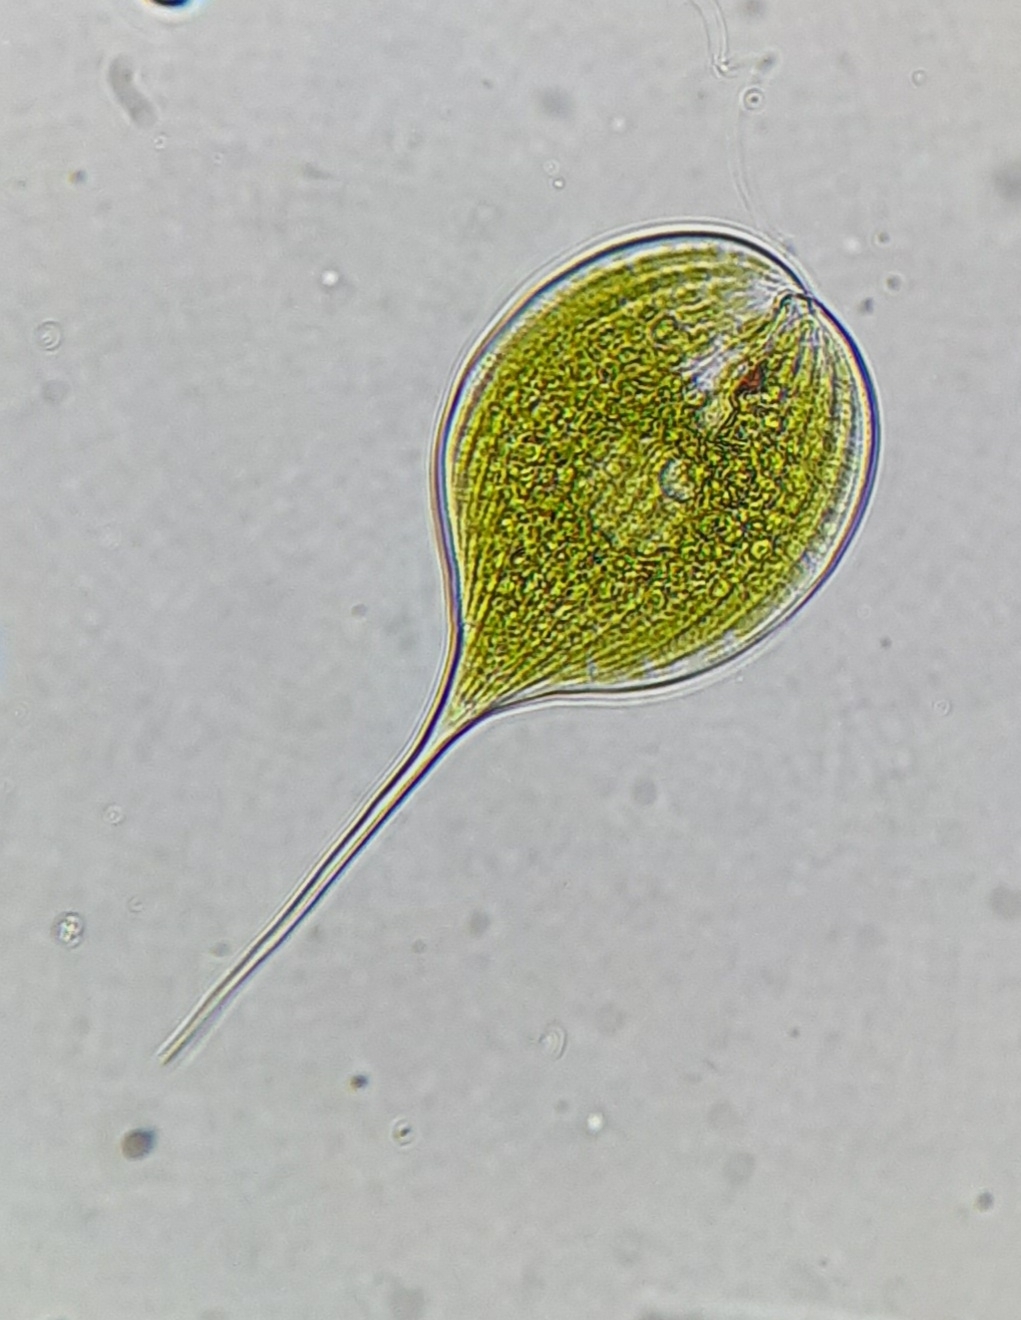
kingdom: Protozoa
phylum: Euglenozoa
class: Euglenoidea
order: Euglenida
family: Phacidae
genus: Phacus
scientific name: Phacus longicauda
